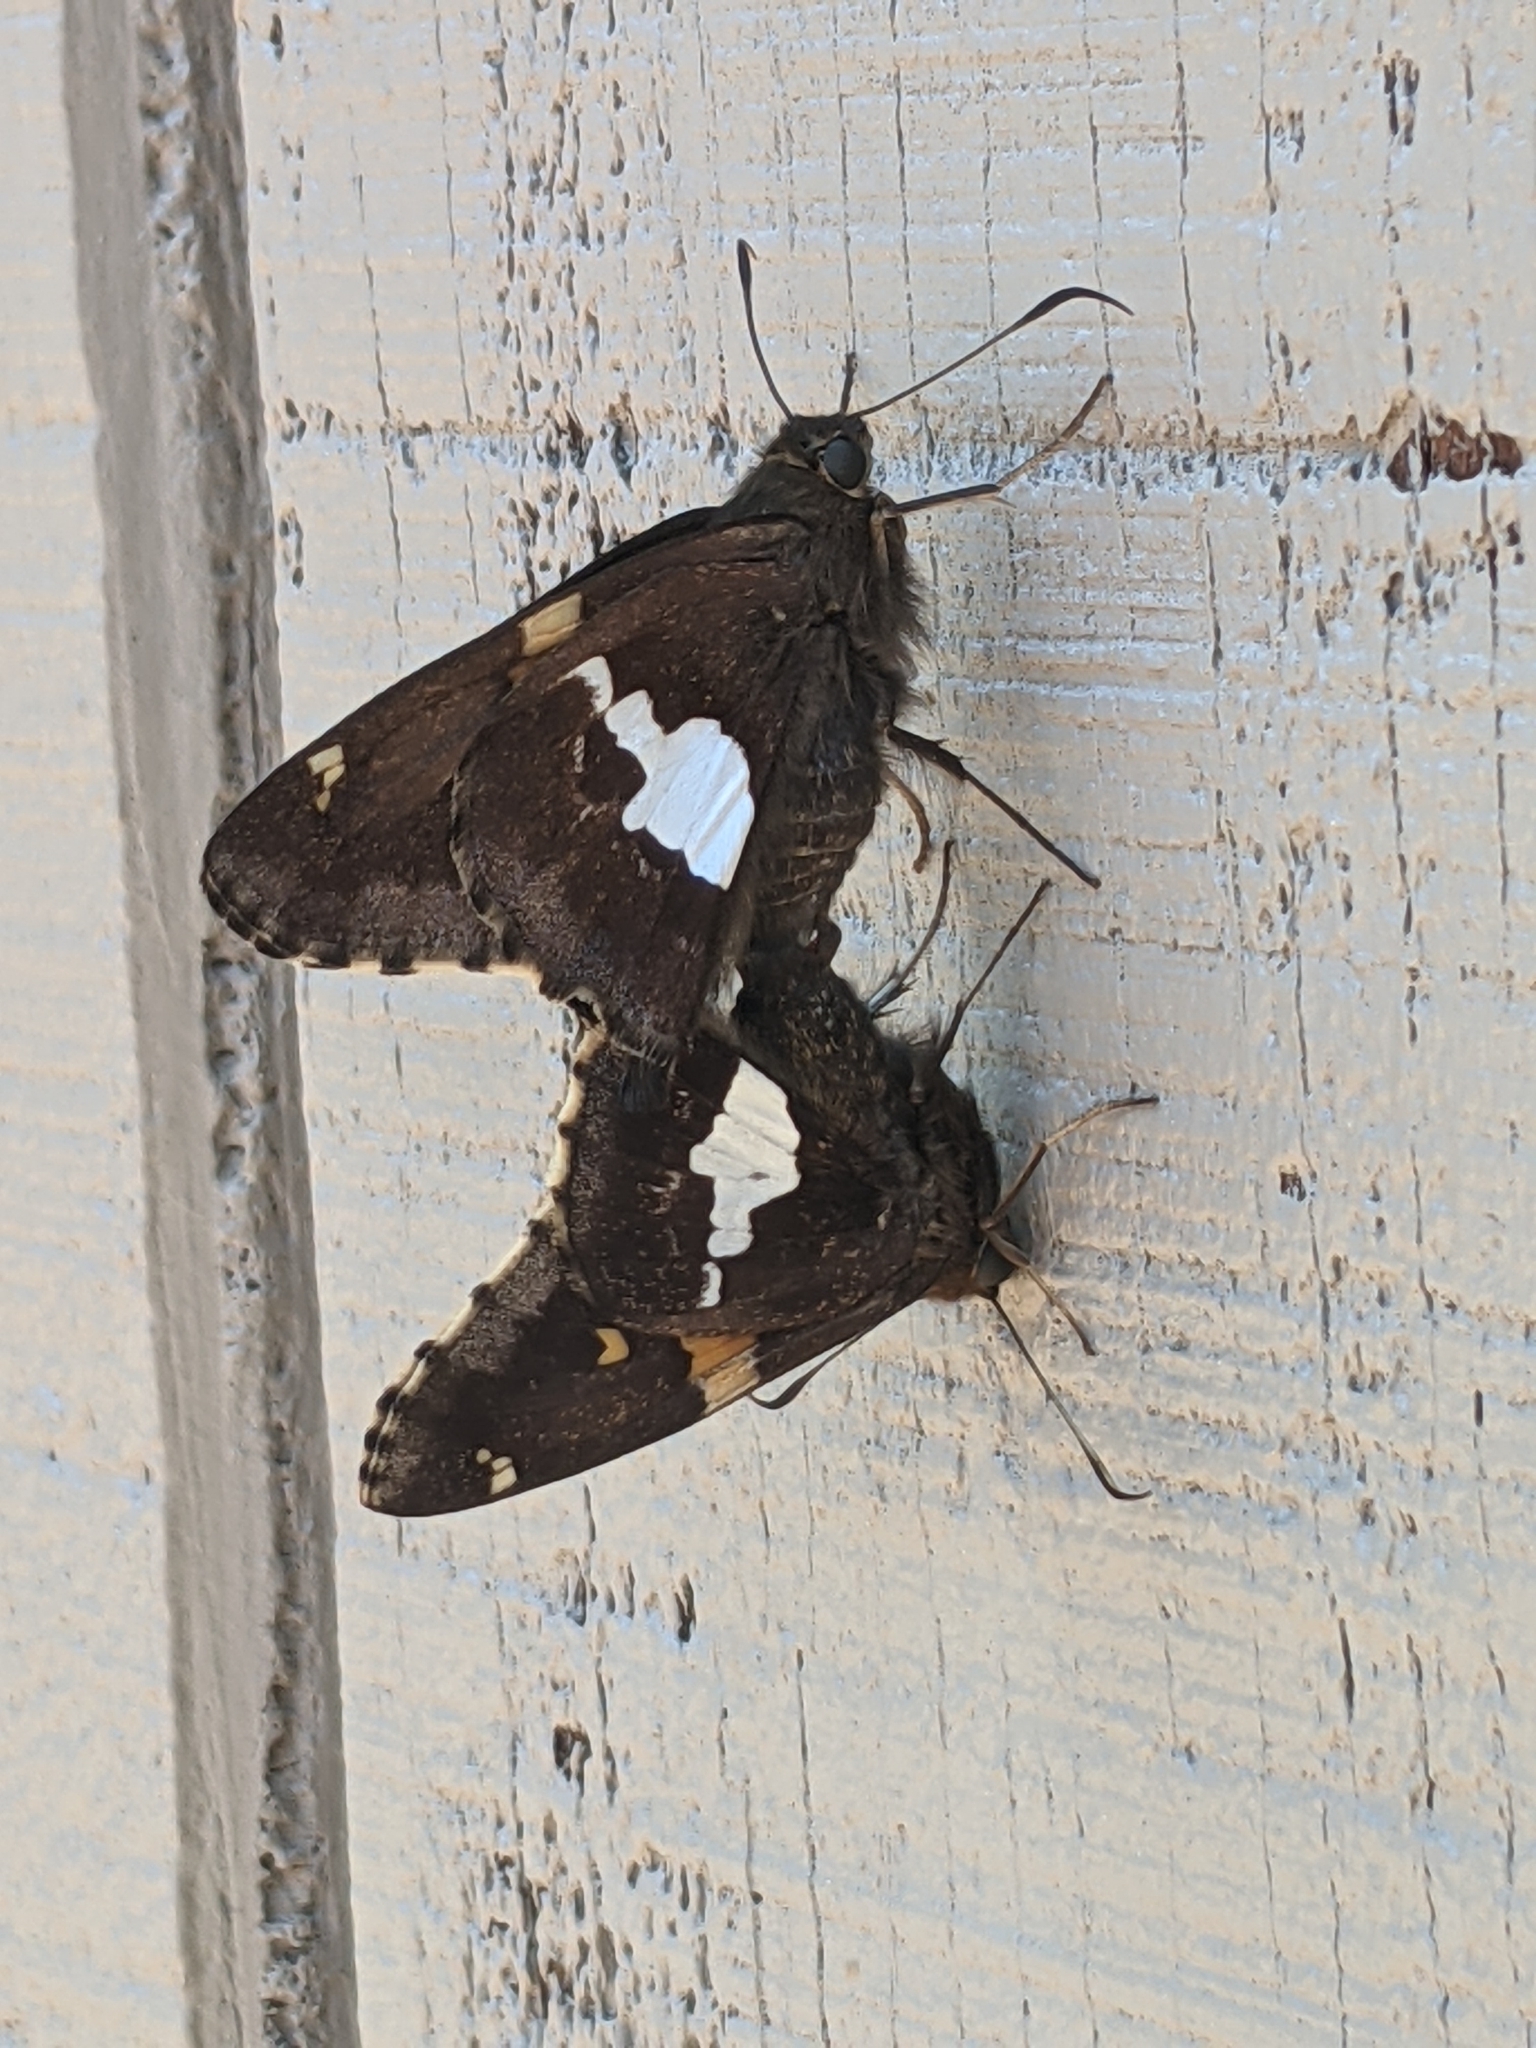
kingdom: Animalia
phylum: Arthropoda
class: Insecta
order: Lepidoptera
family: Hesperiidae
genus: Epargyreus
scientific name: Epargyreus clarus
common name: Silver-spotted skipper
